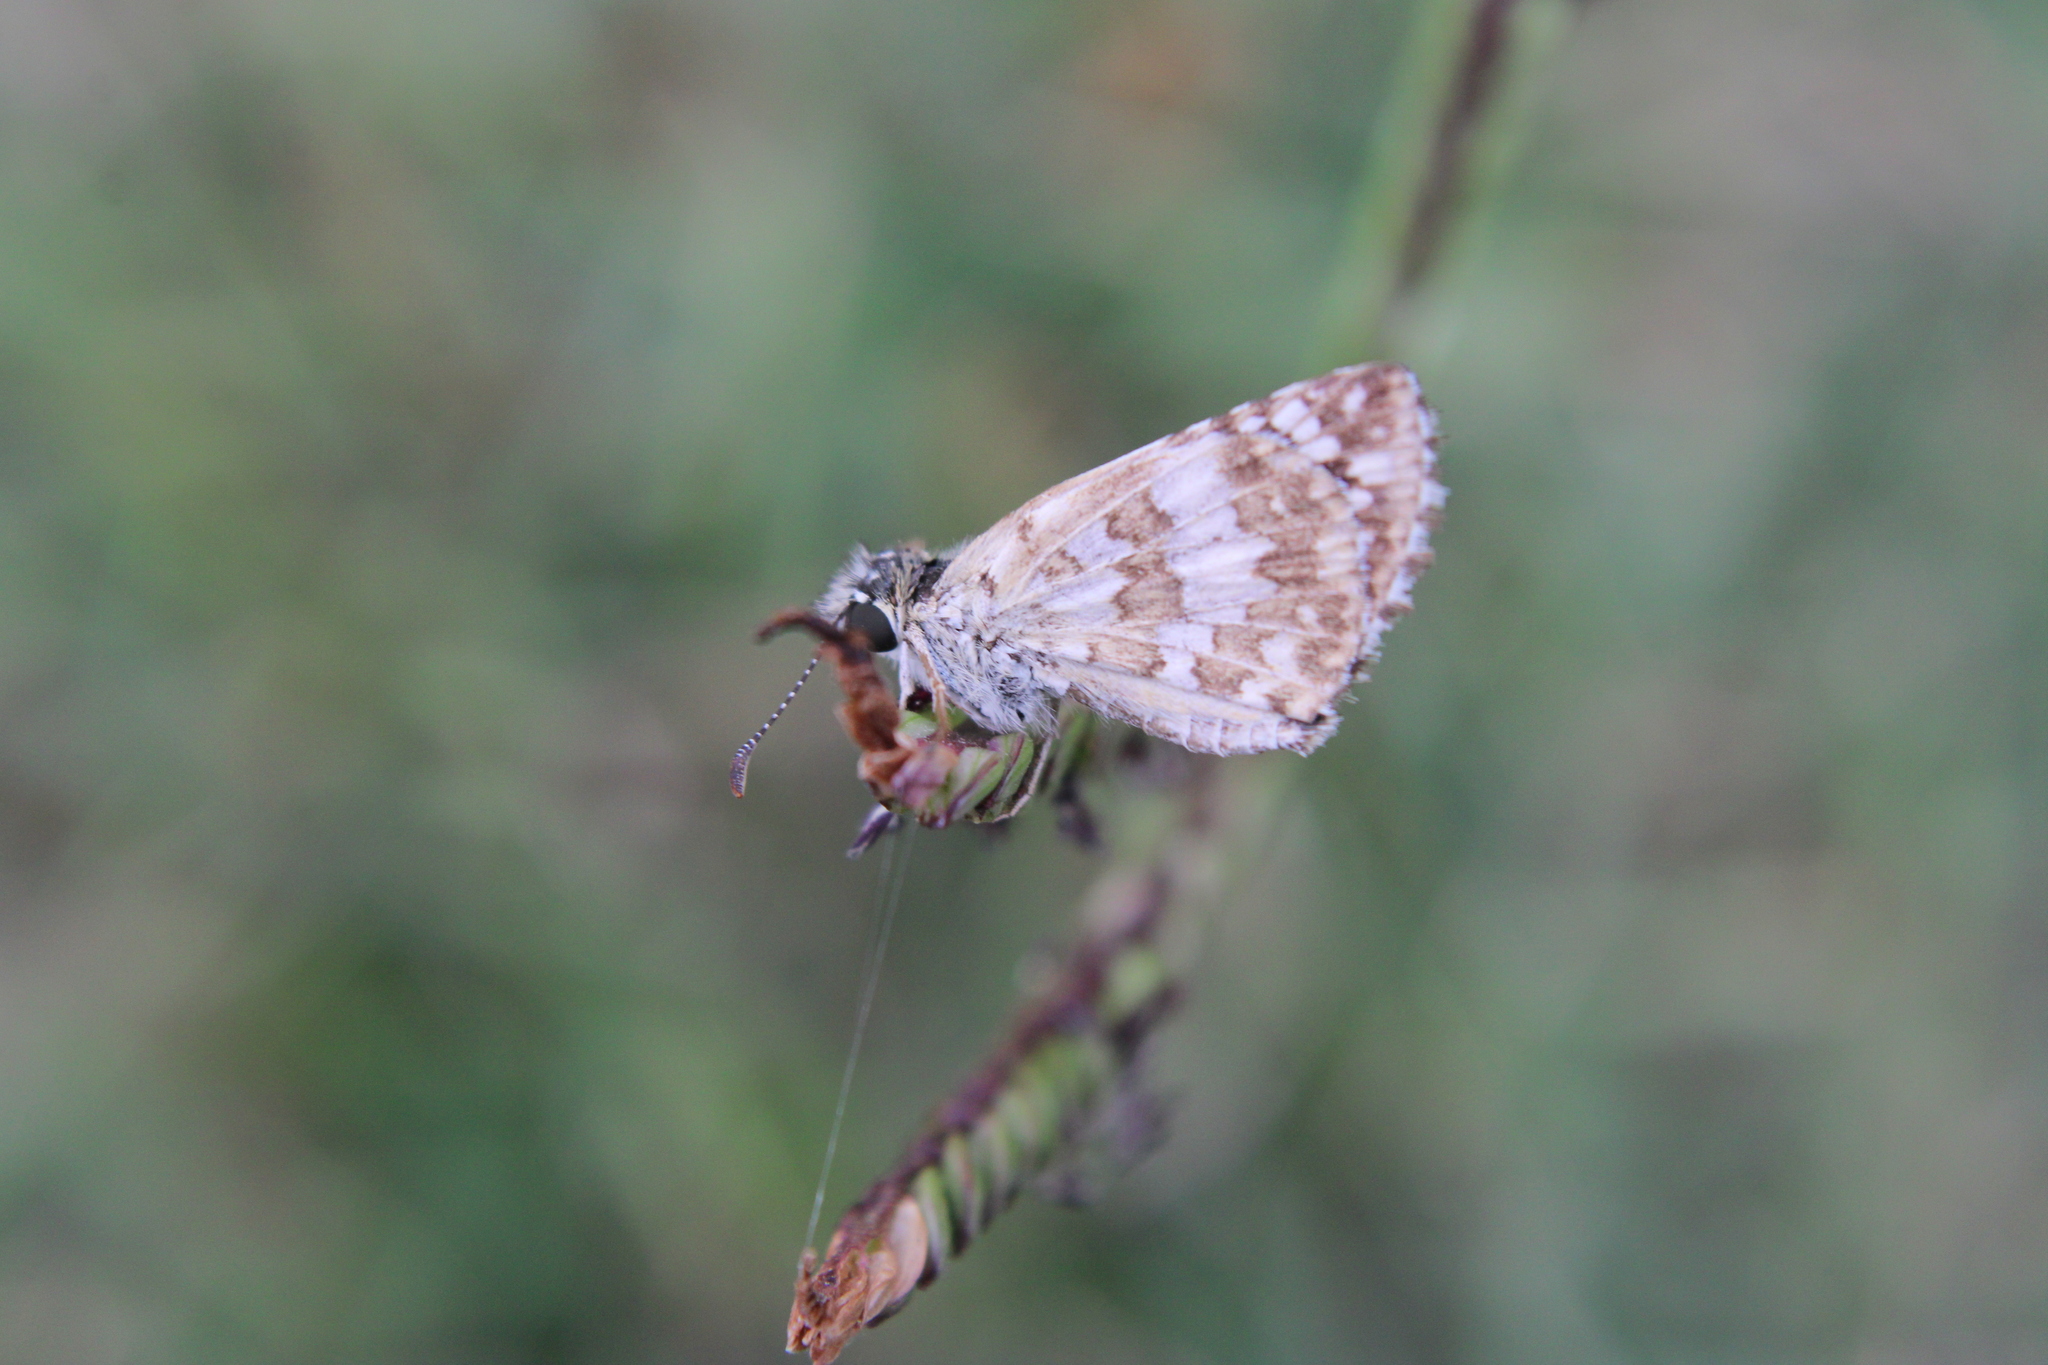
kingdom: Animalia
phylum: Arthropoda
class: Insecta
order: Lepidoptera
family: Hesperiidae
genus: Burnsius
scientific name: Burnsius orcynoides
